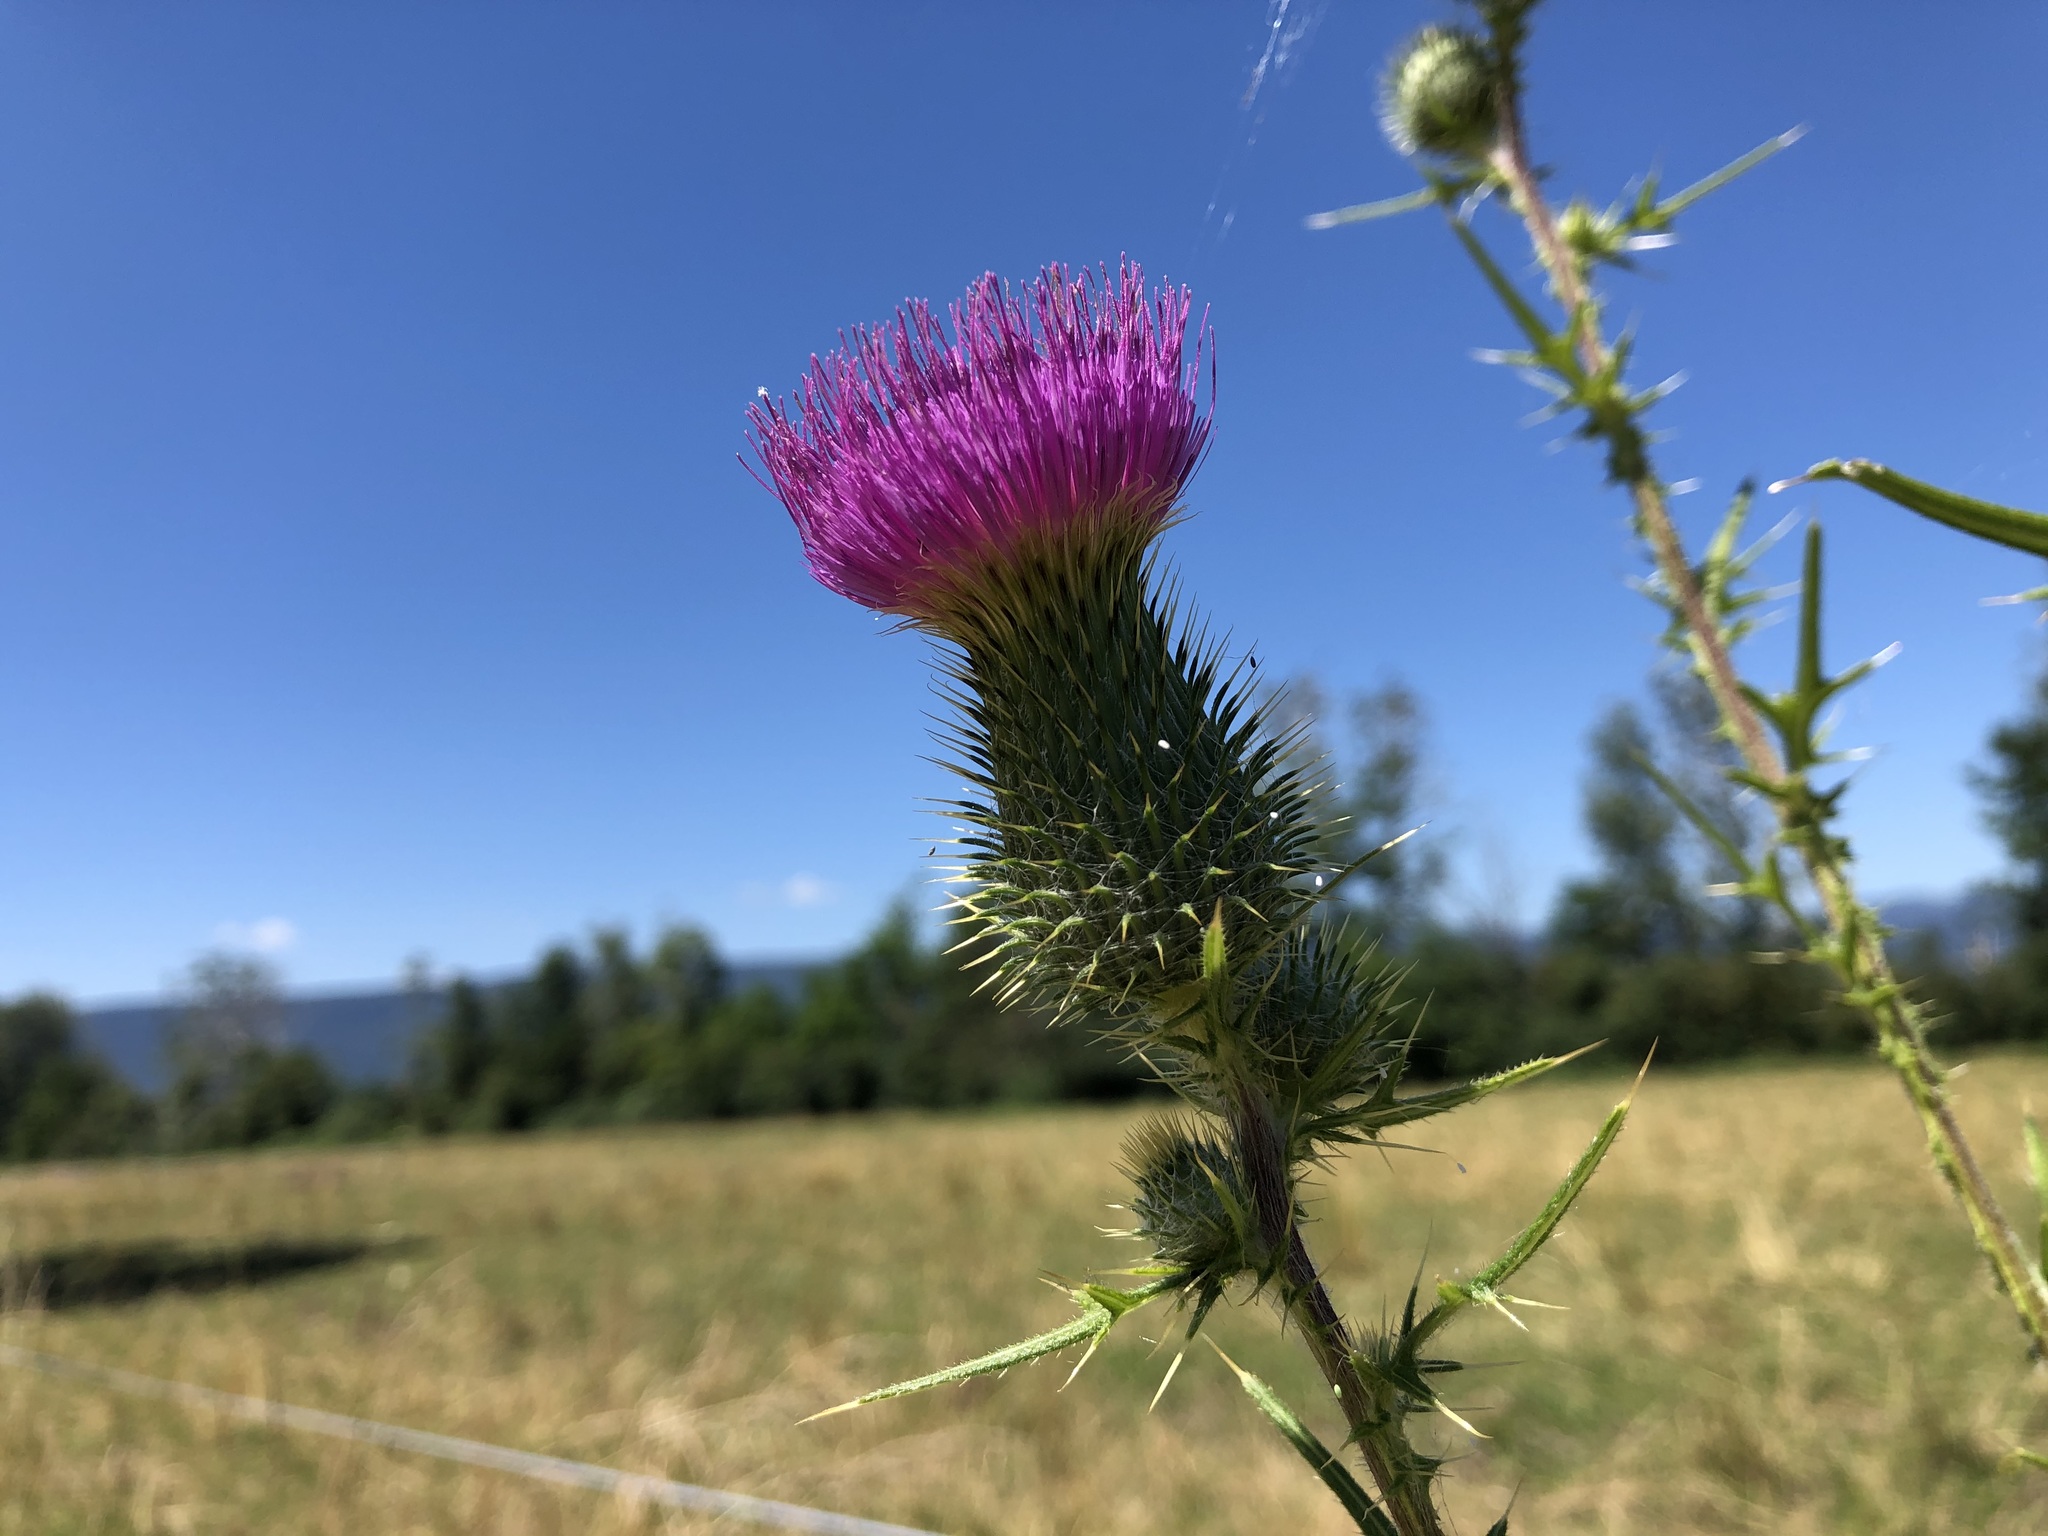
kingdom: Plantae
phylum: Tracheophyta
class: Magnoliopsida
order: Asterales
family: Asteraceae
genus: Cirsium
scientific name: Cirsium vulgare
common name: Bull thistle
